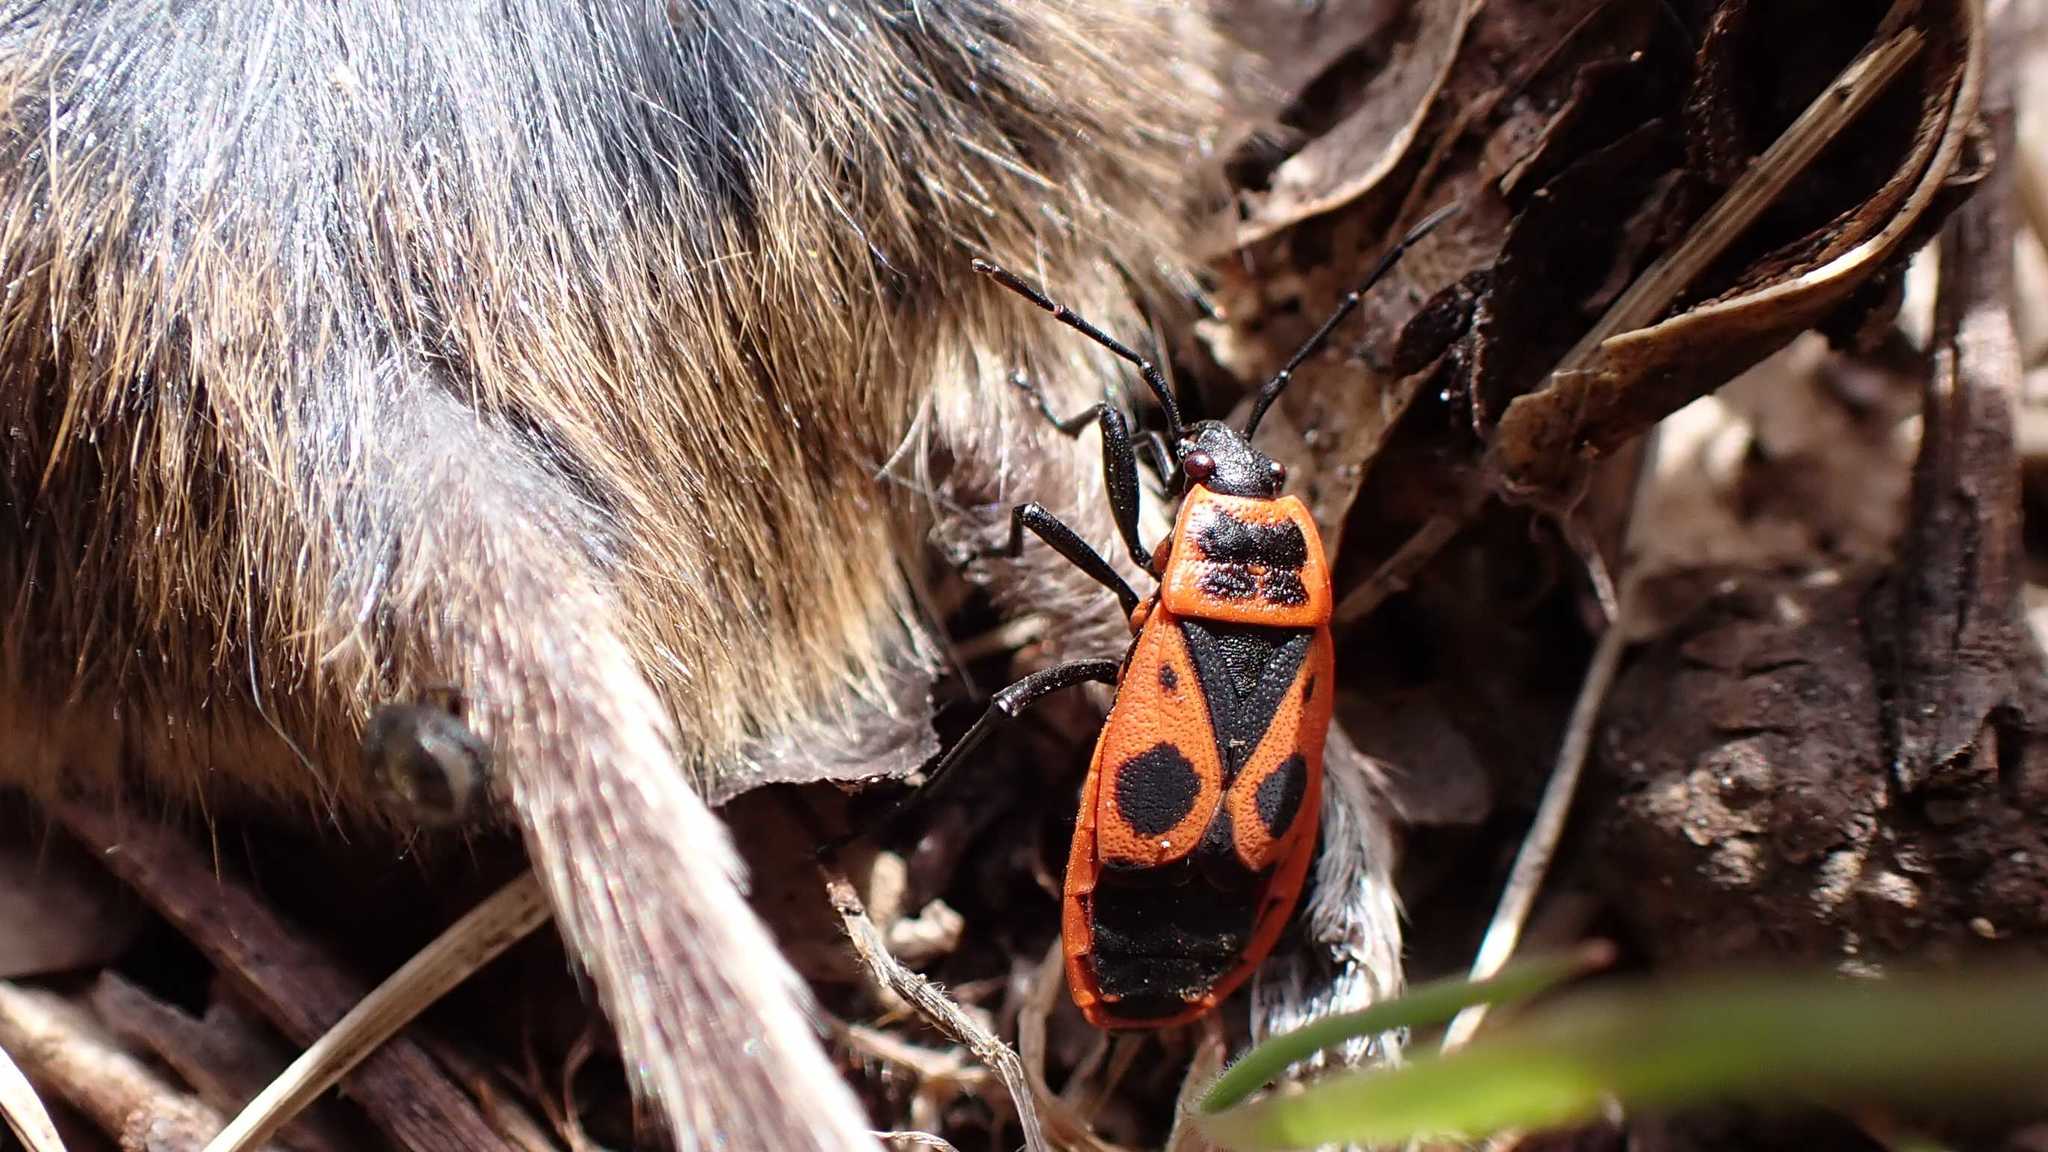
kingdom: Animalia
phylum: Arthropoda
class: Insecta
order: Hemiptera
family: Pyrrhocoridae
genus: Pyrrhocoris
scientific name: Pyrrhocoris apterus
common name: Firebug
